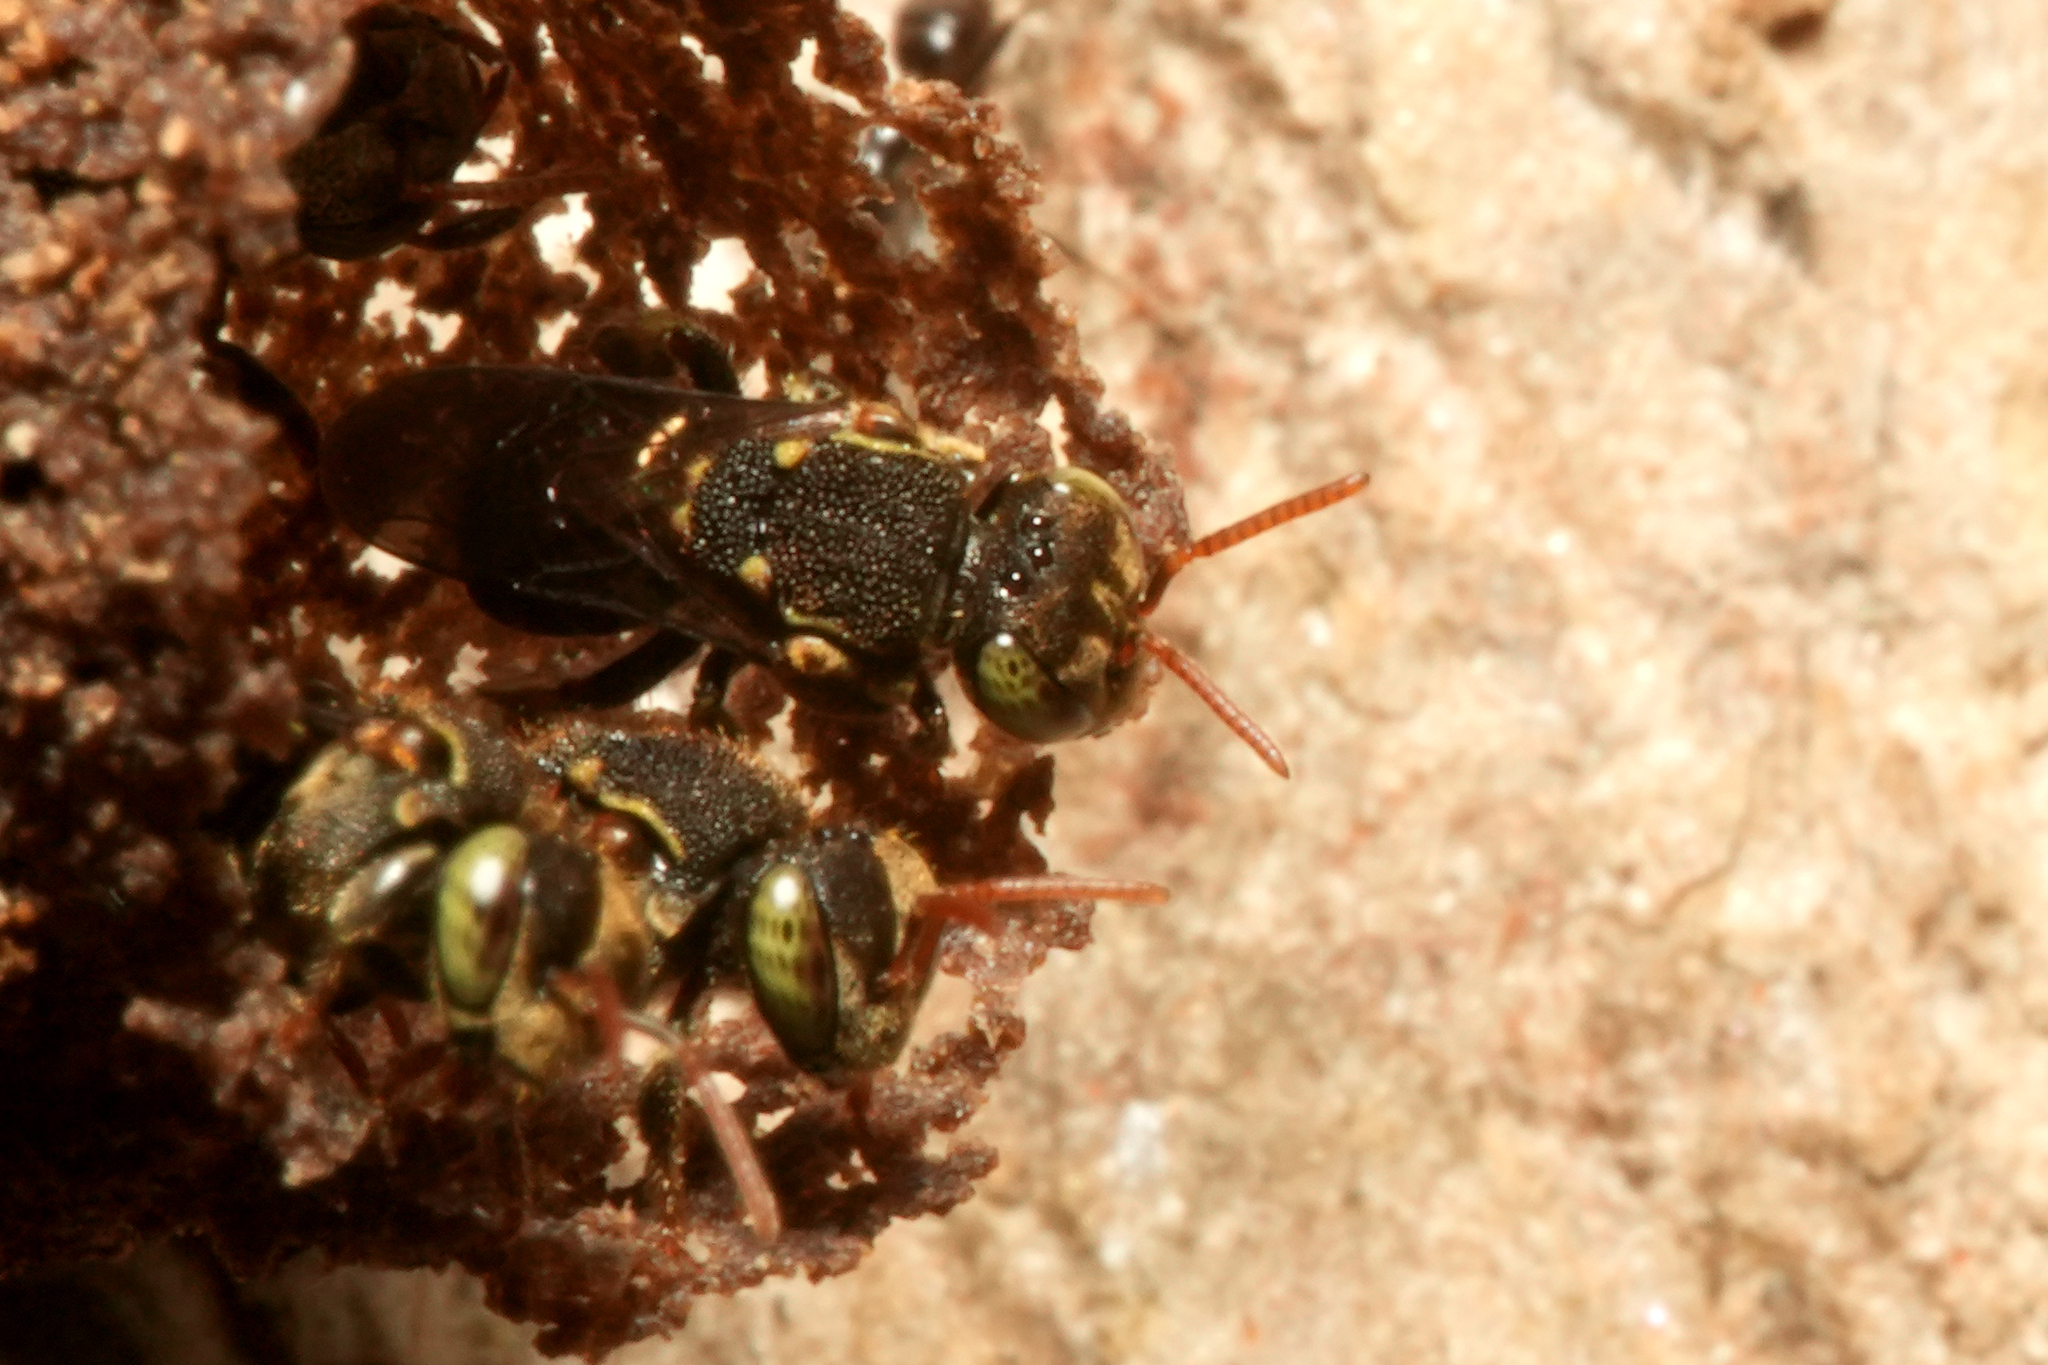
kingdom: Animalia
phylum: Arthropoda
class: Insecta
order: Hymenoptera
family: Apidae
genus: Nannotrigona
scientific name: Nannotrigona perilampoides
